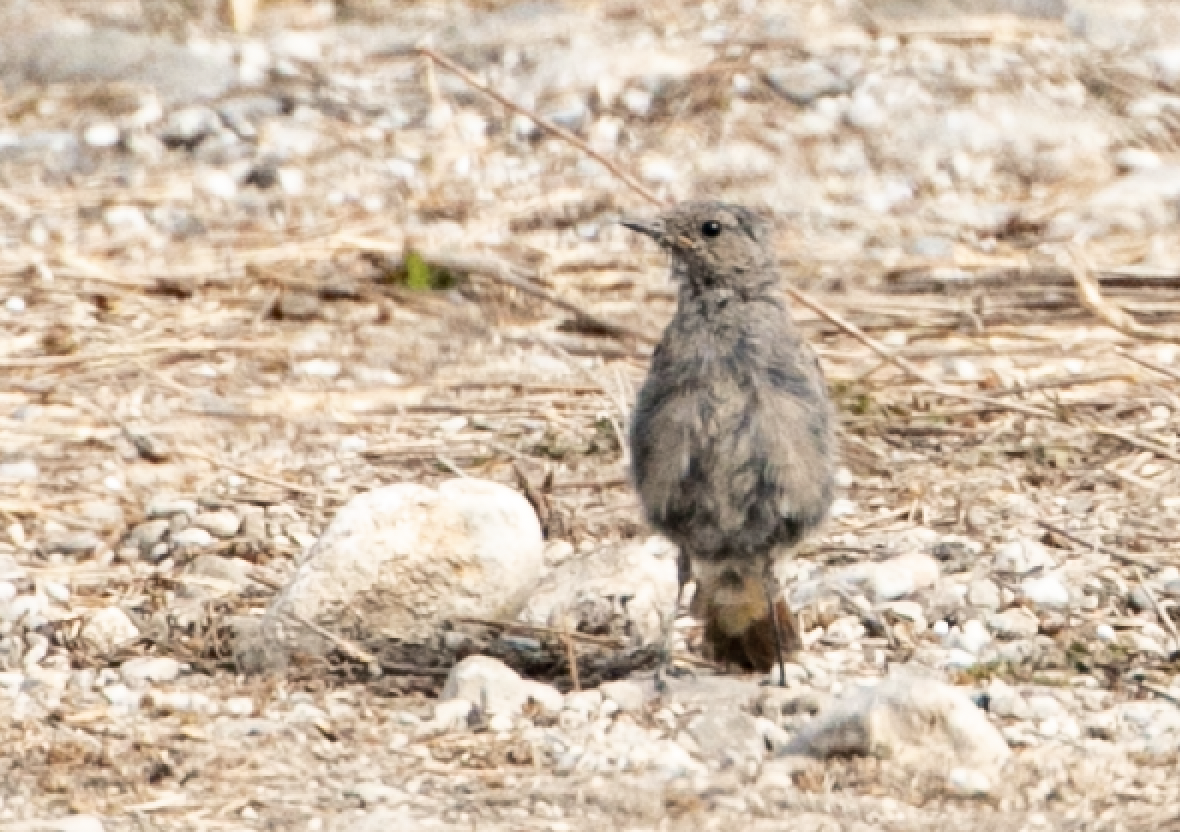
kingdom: Animalia
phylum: Chordata
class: Aves
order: Passeriformes
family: Muscicapidae
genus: Phoenicurus
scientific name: Phoenicurus ochruros
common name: Black redstart
